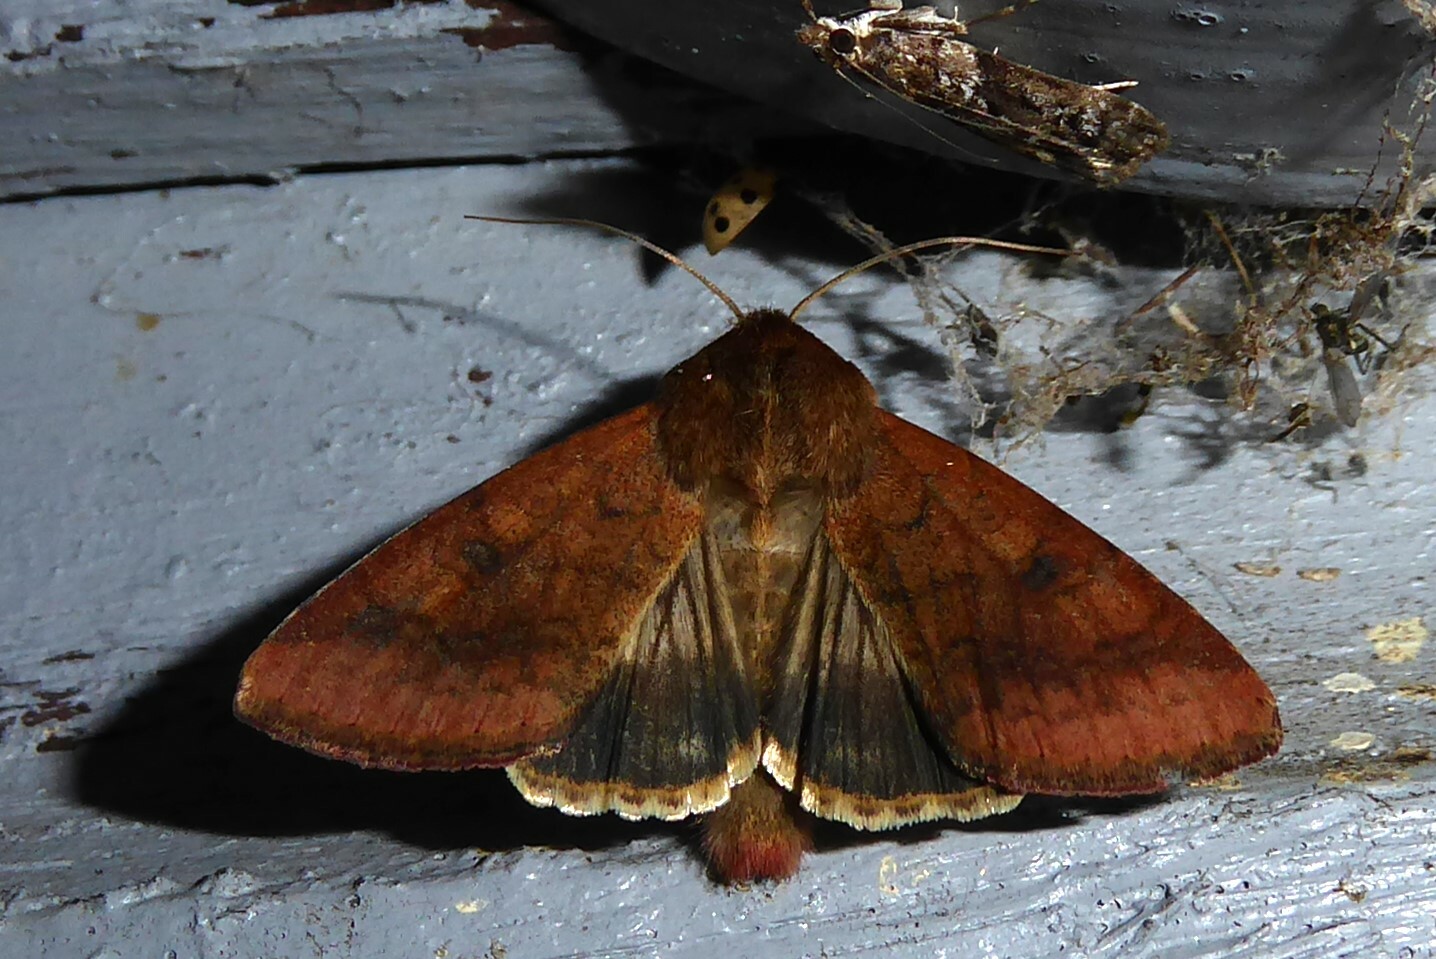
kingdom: Animalia
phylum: Arthropoda
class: Insecta
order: Lepidoptera
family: Noctuidae
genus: Helicoverpa
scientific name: Helicoverpa armigera
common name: Cotton bollworm
